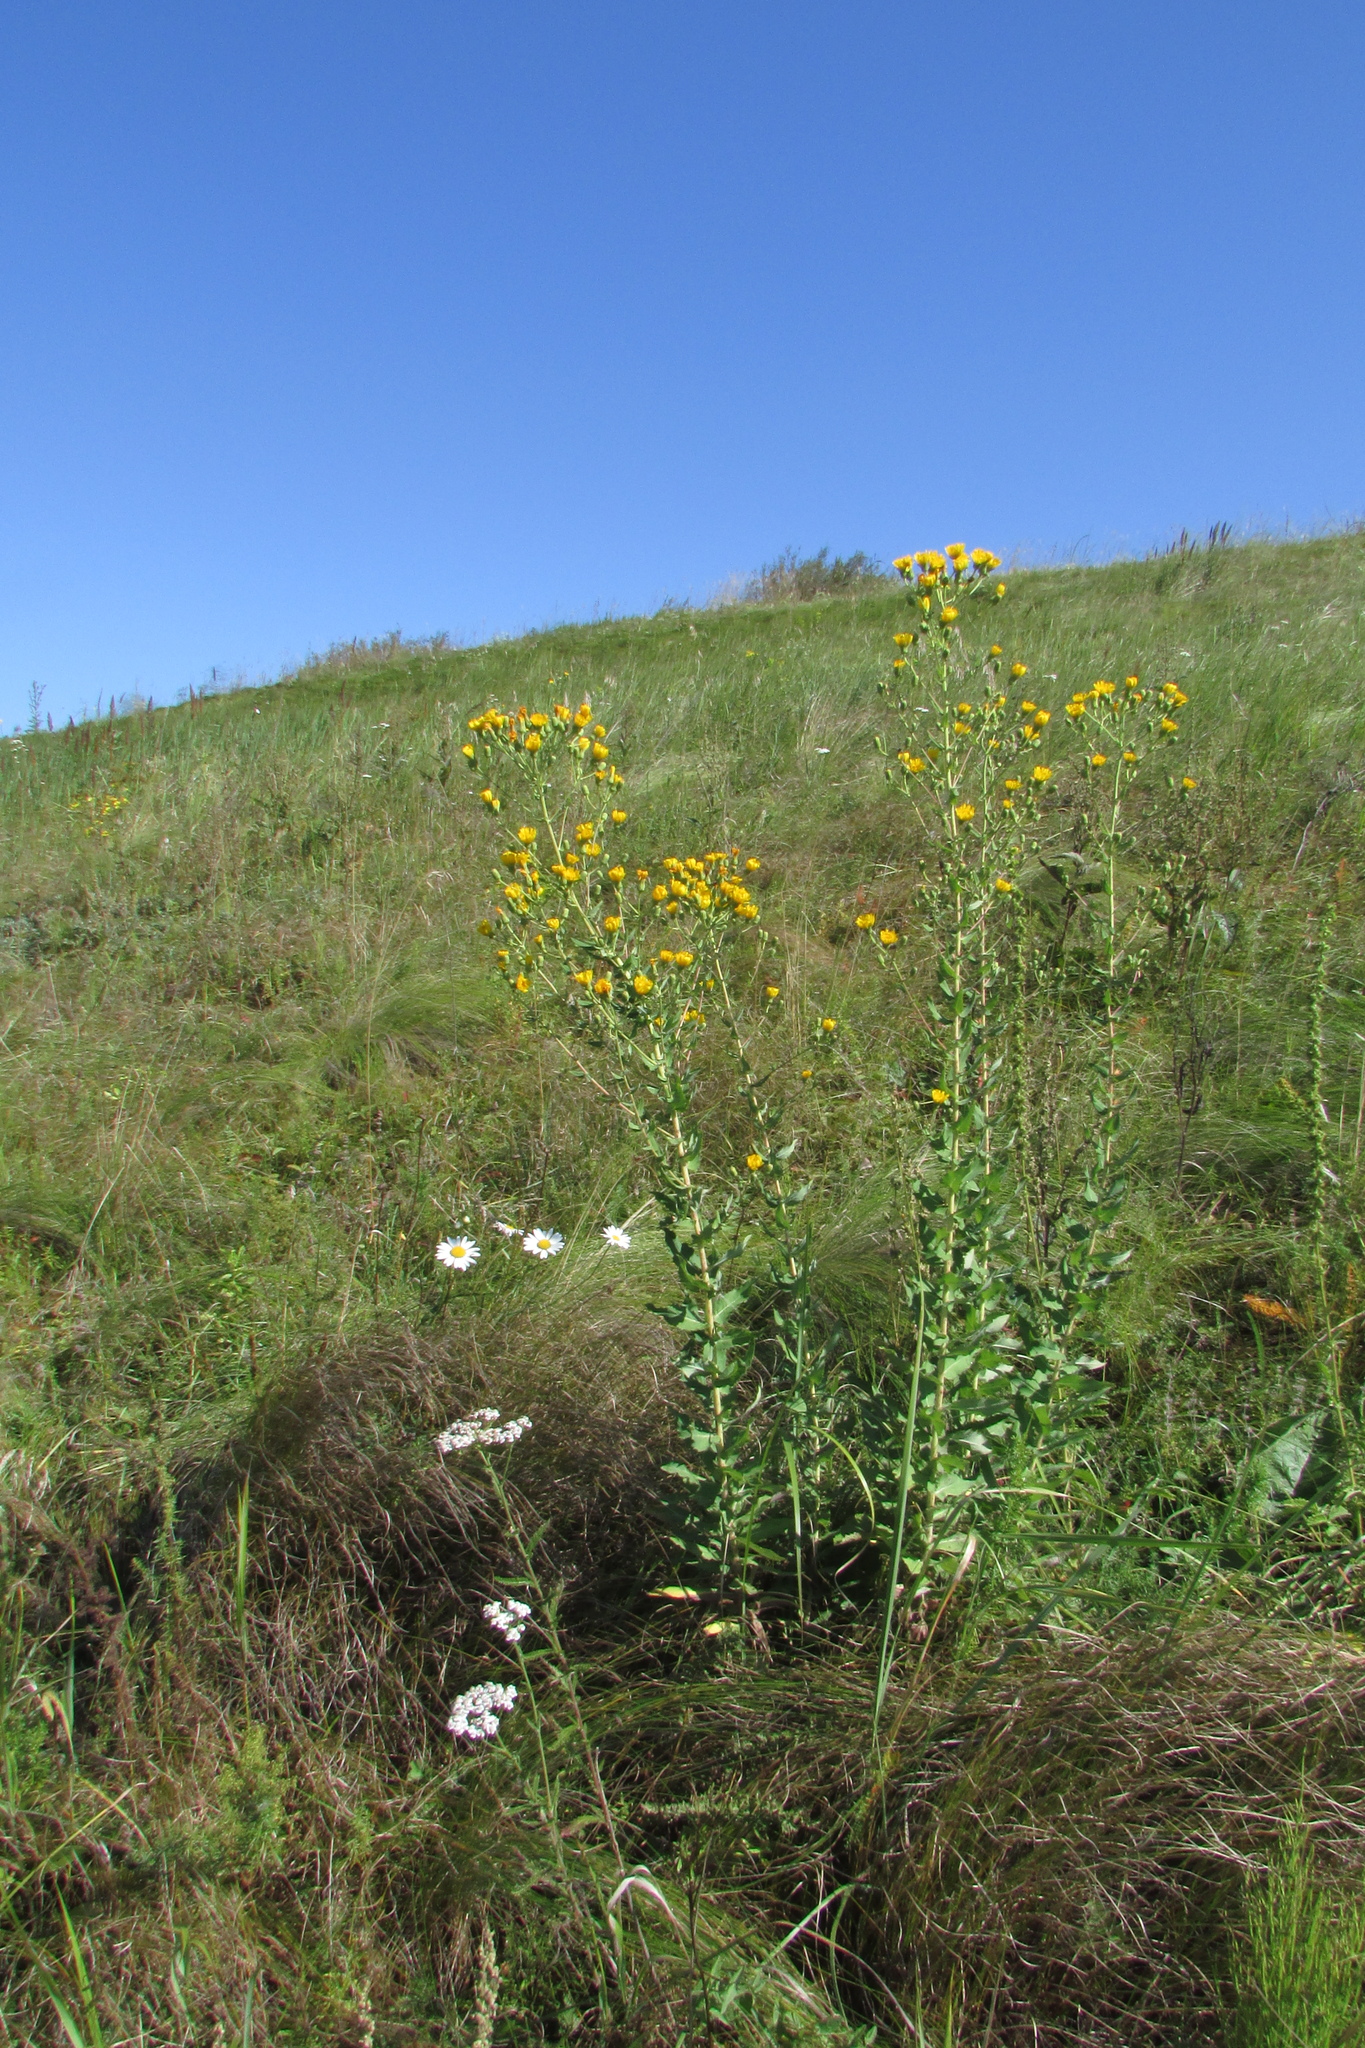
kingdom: Plantae
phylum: Tracheophyta
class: Magnoliopsida
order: Asterales
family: Asteraceae
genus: Hieracium
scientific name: Hieracium virosum
